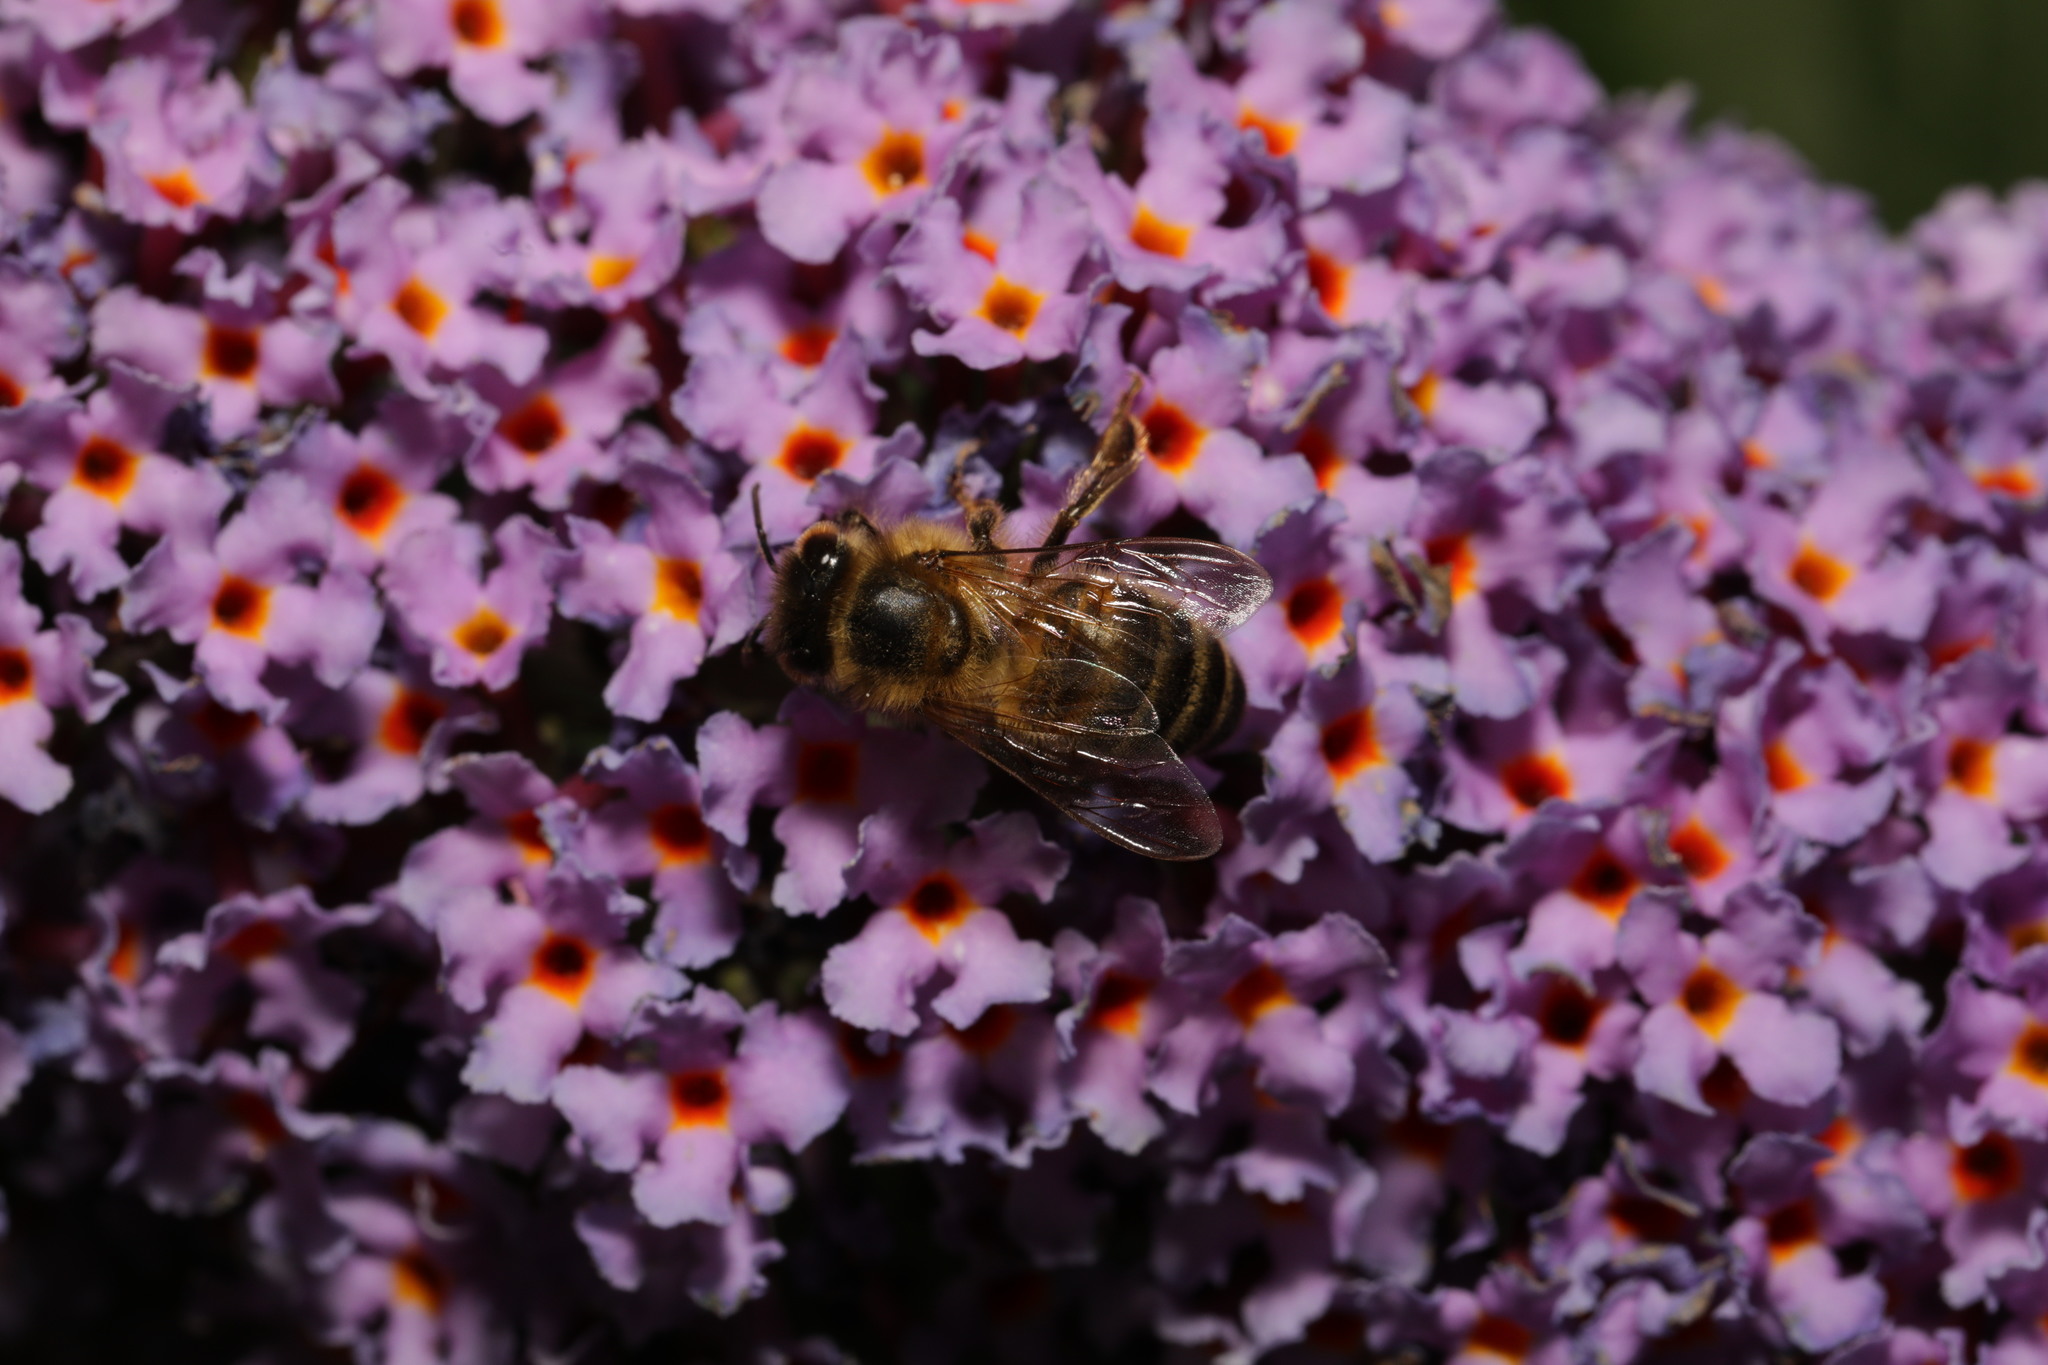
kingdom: Animalia
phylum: Arthropoda
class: Insecta
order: Hymenoptera
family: Apidae
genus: Apis
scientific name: Apis mellifera
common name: Honey bee
